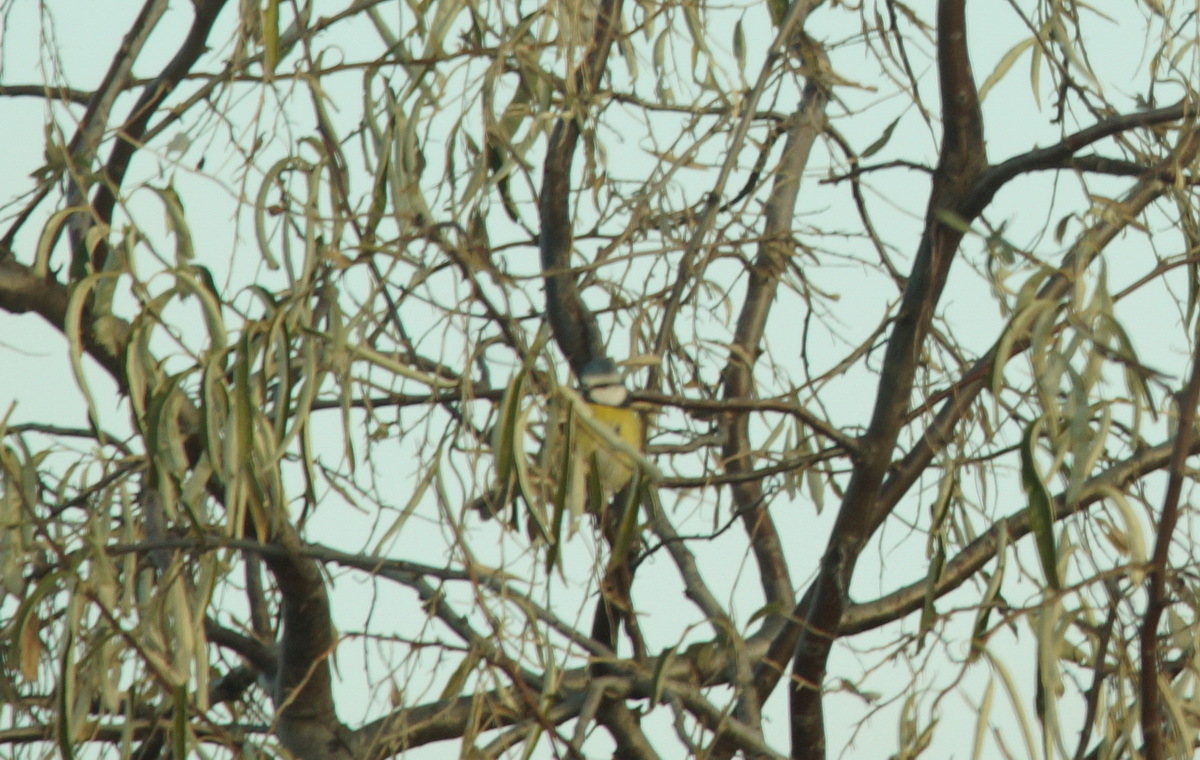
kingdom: Animalia
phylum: Chordata
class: Aves
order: Passeriformes
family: Paridae
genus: Cyanistes
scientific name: Cyanistes caeruleus
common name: Eurasian blue tit
